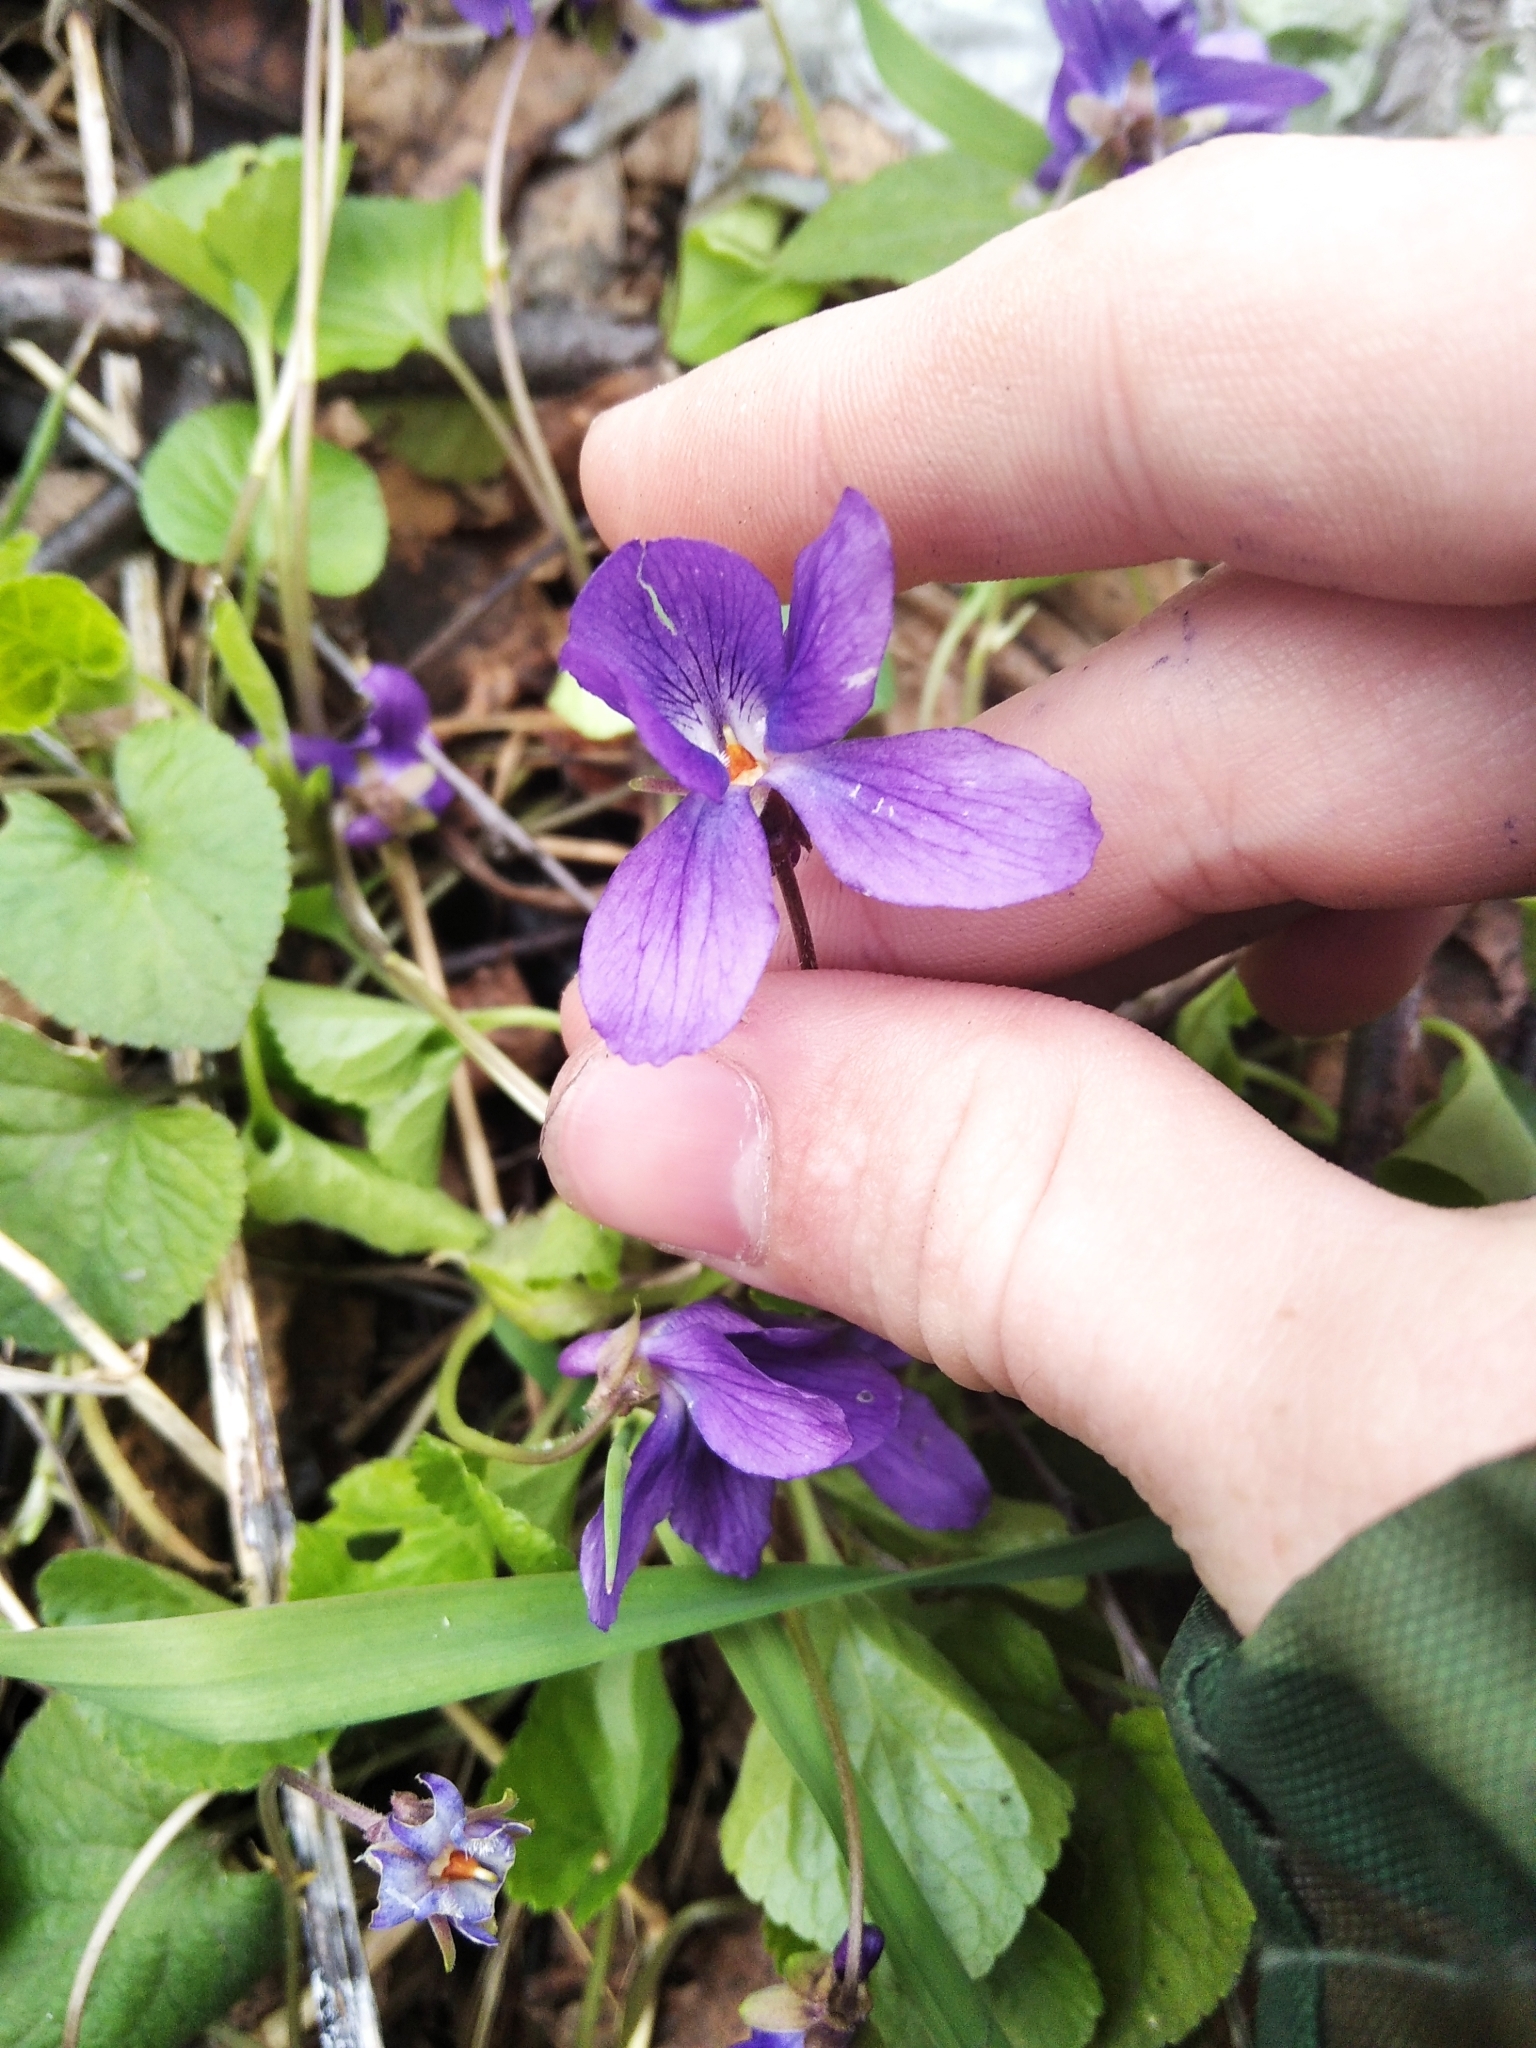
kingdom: Plantae
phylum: Tracheophyta
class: Magnoliopsida
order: Malpighiales
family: Violaceae
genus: Viola
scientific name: Viola odorata
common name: Sweet violet
